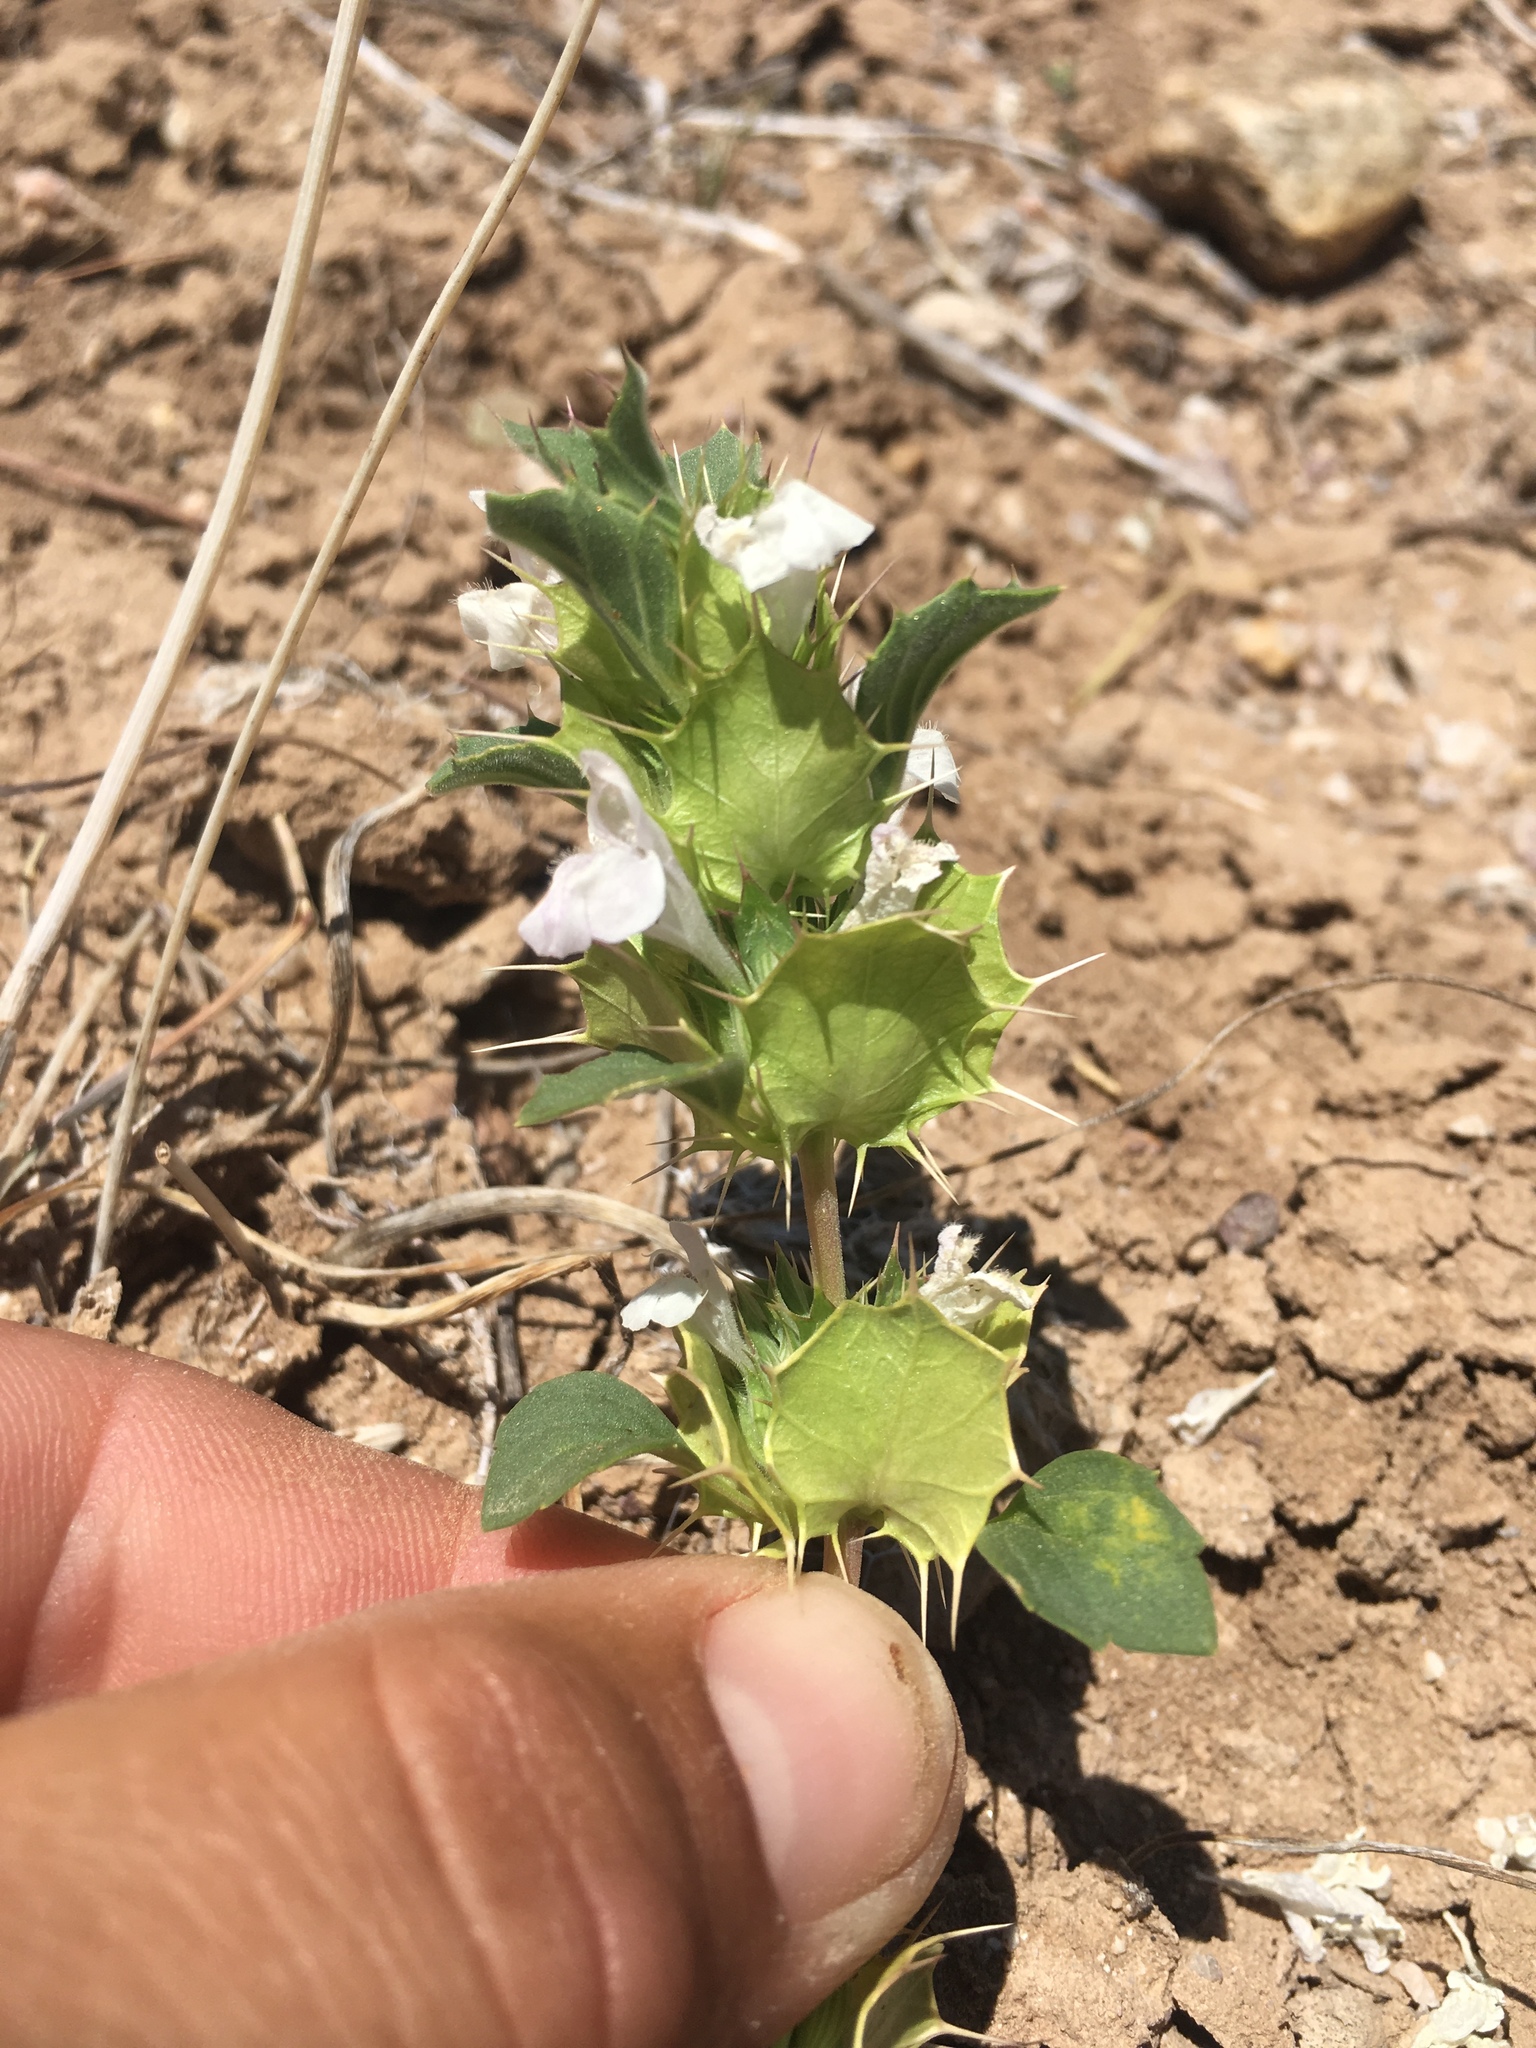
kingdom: Plantae
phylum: Tracheophyta
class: Magnoliopsida
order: Lamiales
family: Lamiaceae
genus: Acanthomintha
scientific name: Acanthomintha obovata
